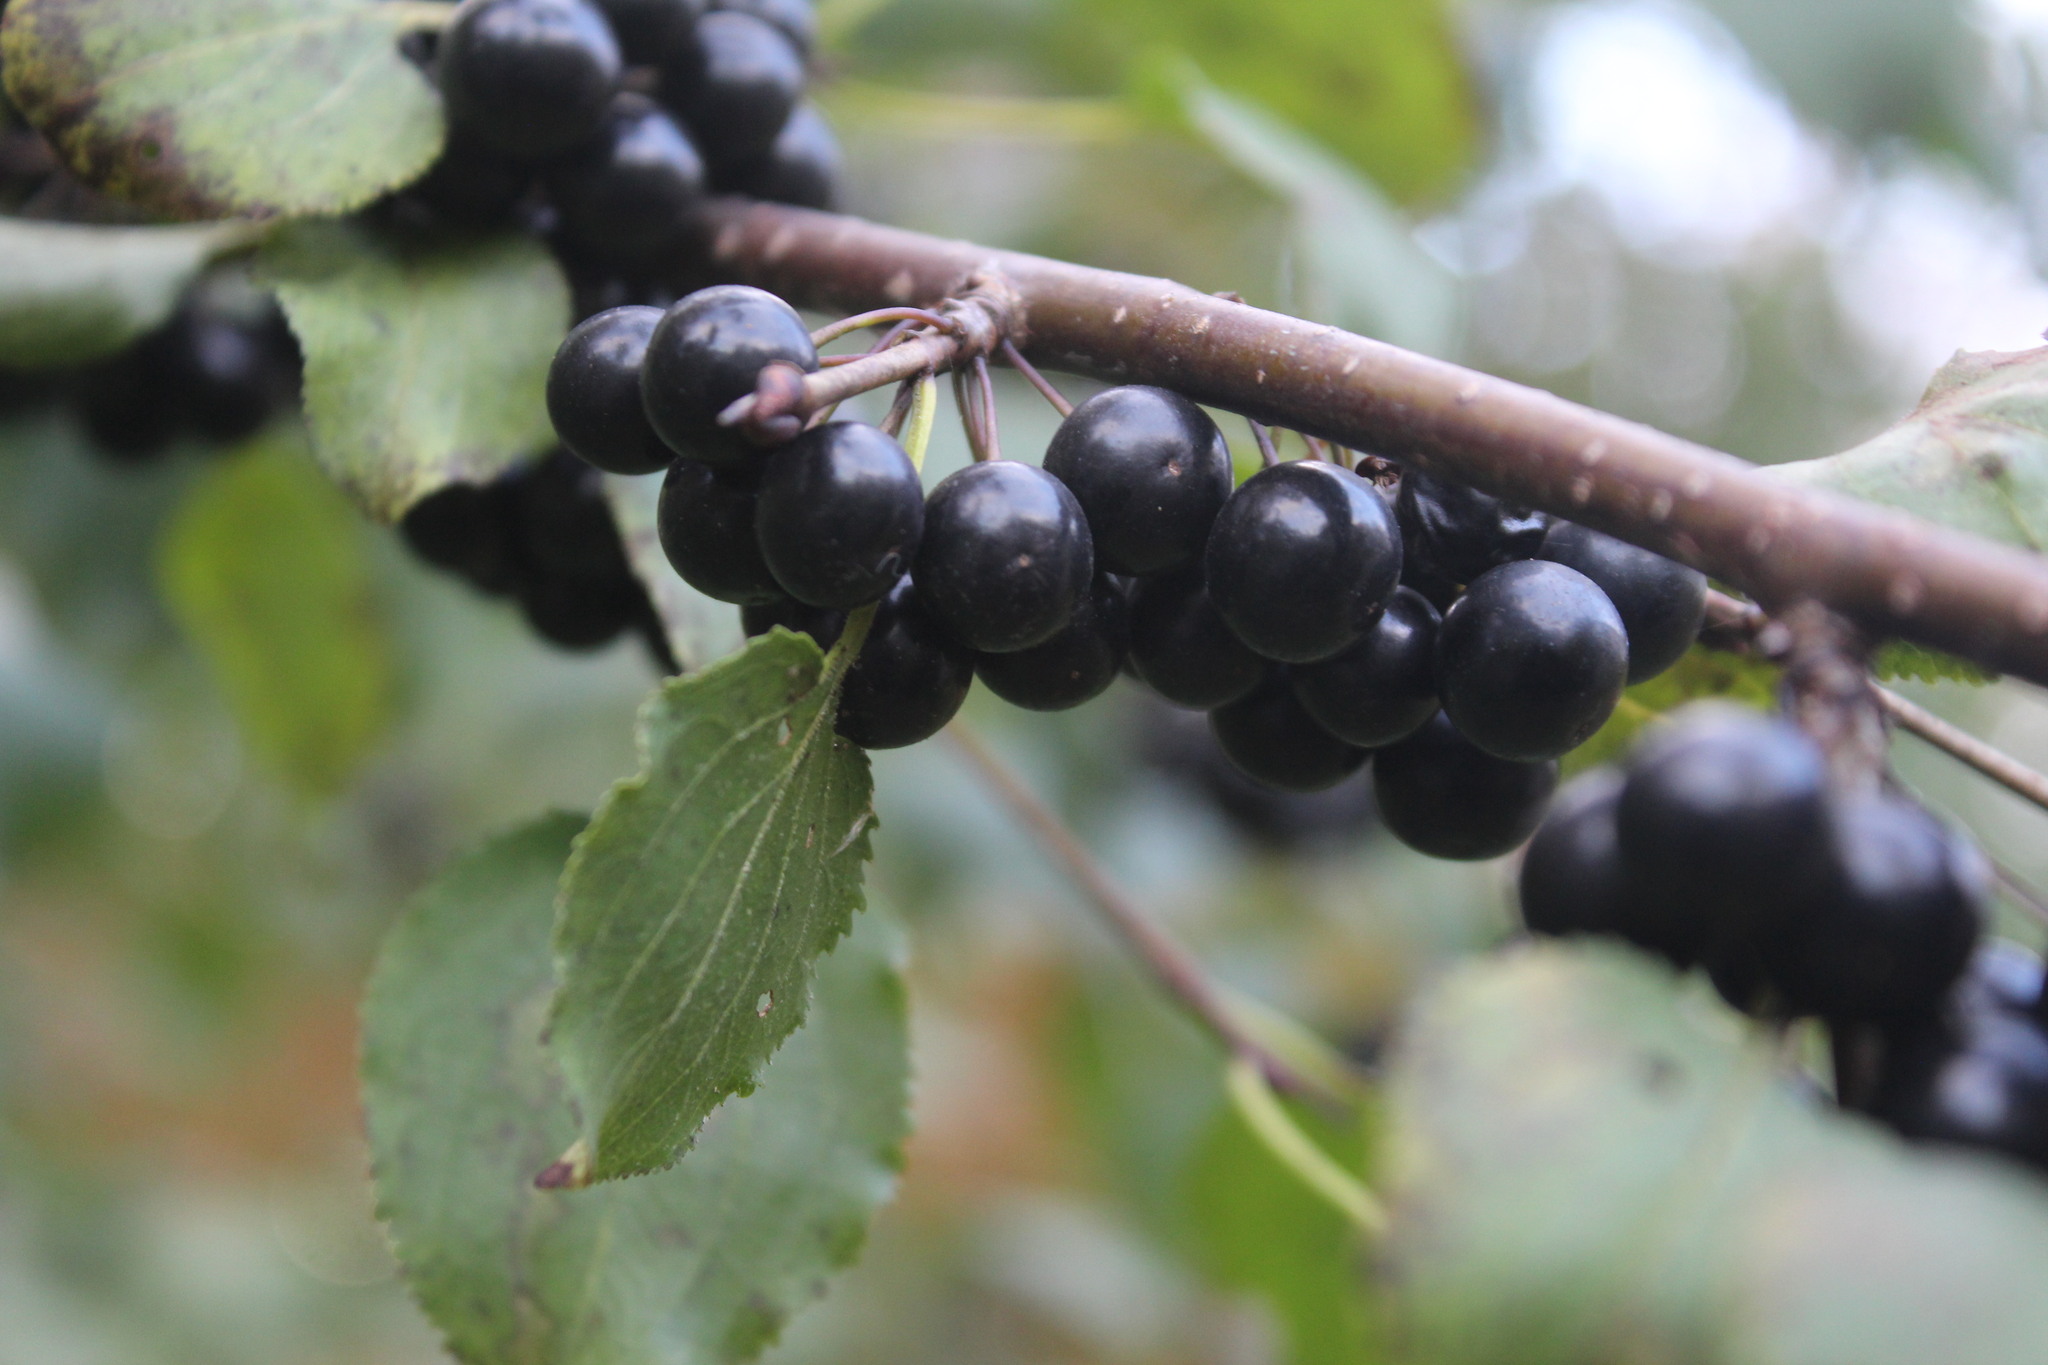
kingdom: Plantae
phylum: Tracheophyta
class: Magnoliopsida
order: Rosales
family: Rhamnaceae
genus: Rhamnus
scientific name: Rhamnus cathartica
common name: Common buckthorn
